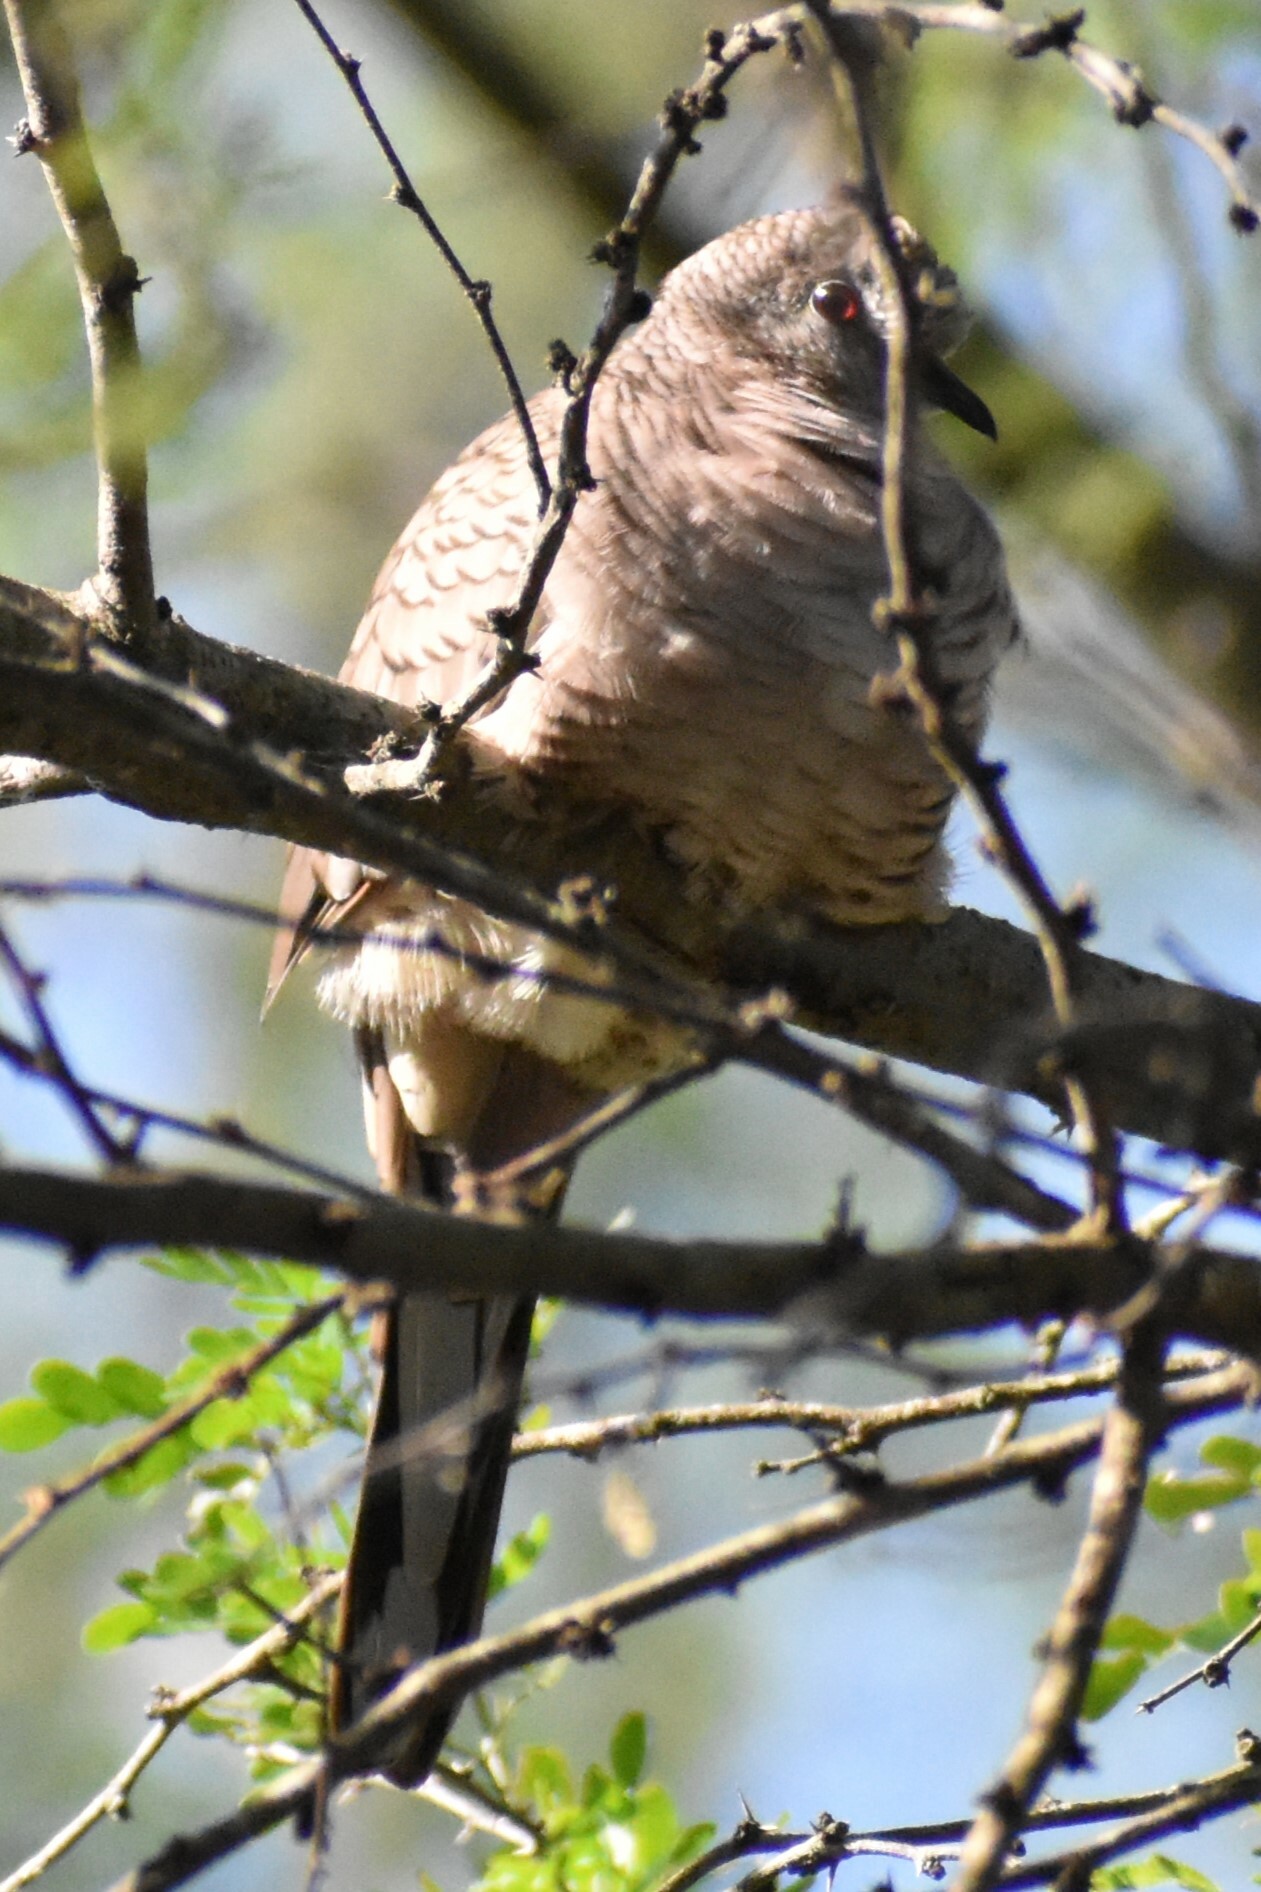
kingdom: Animalia
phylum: Chordata
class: Aves
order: Columbiformes
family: Columbidae
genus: Columbina
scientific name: Columbina inca
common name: Inca dove
